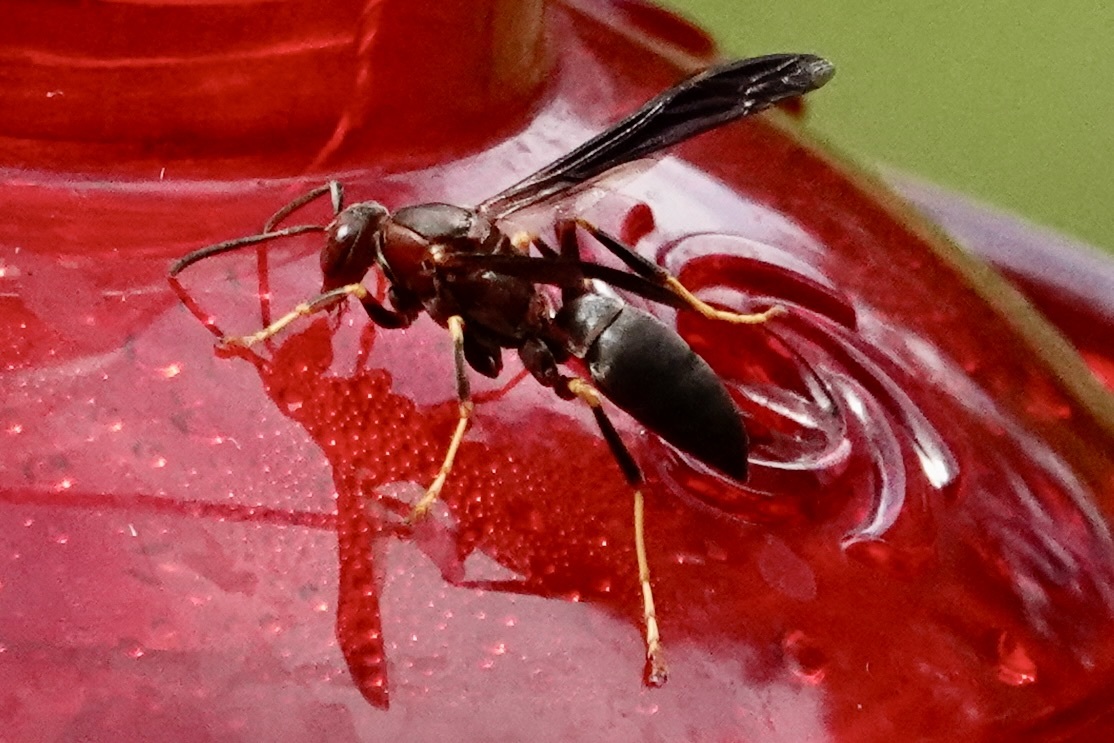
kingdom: Animalia
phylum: Arthropoda
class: Insecta
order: Hymenoptera
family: Eumenidae
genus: Polistes
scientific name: Polistes metricus
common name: Metric paper wasp
